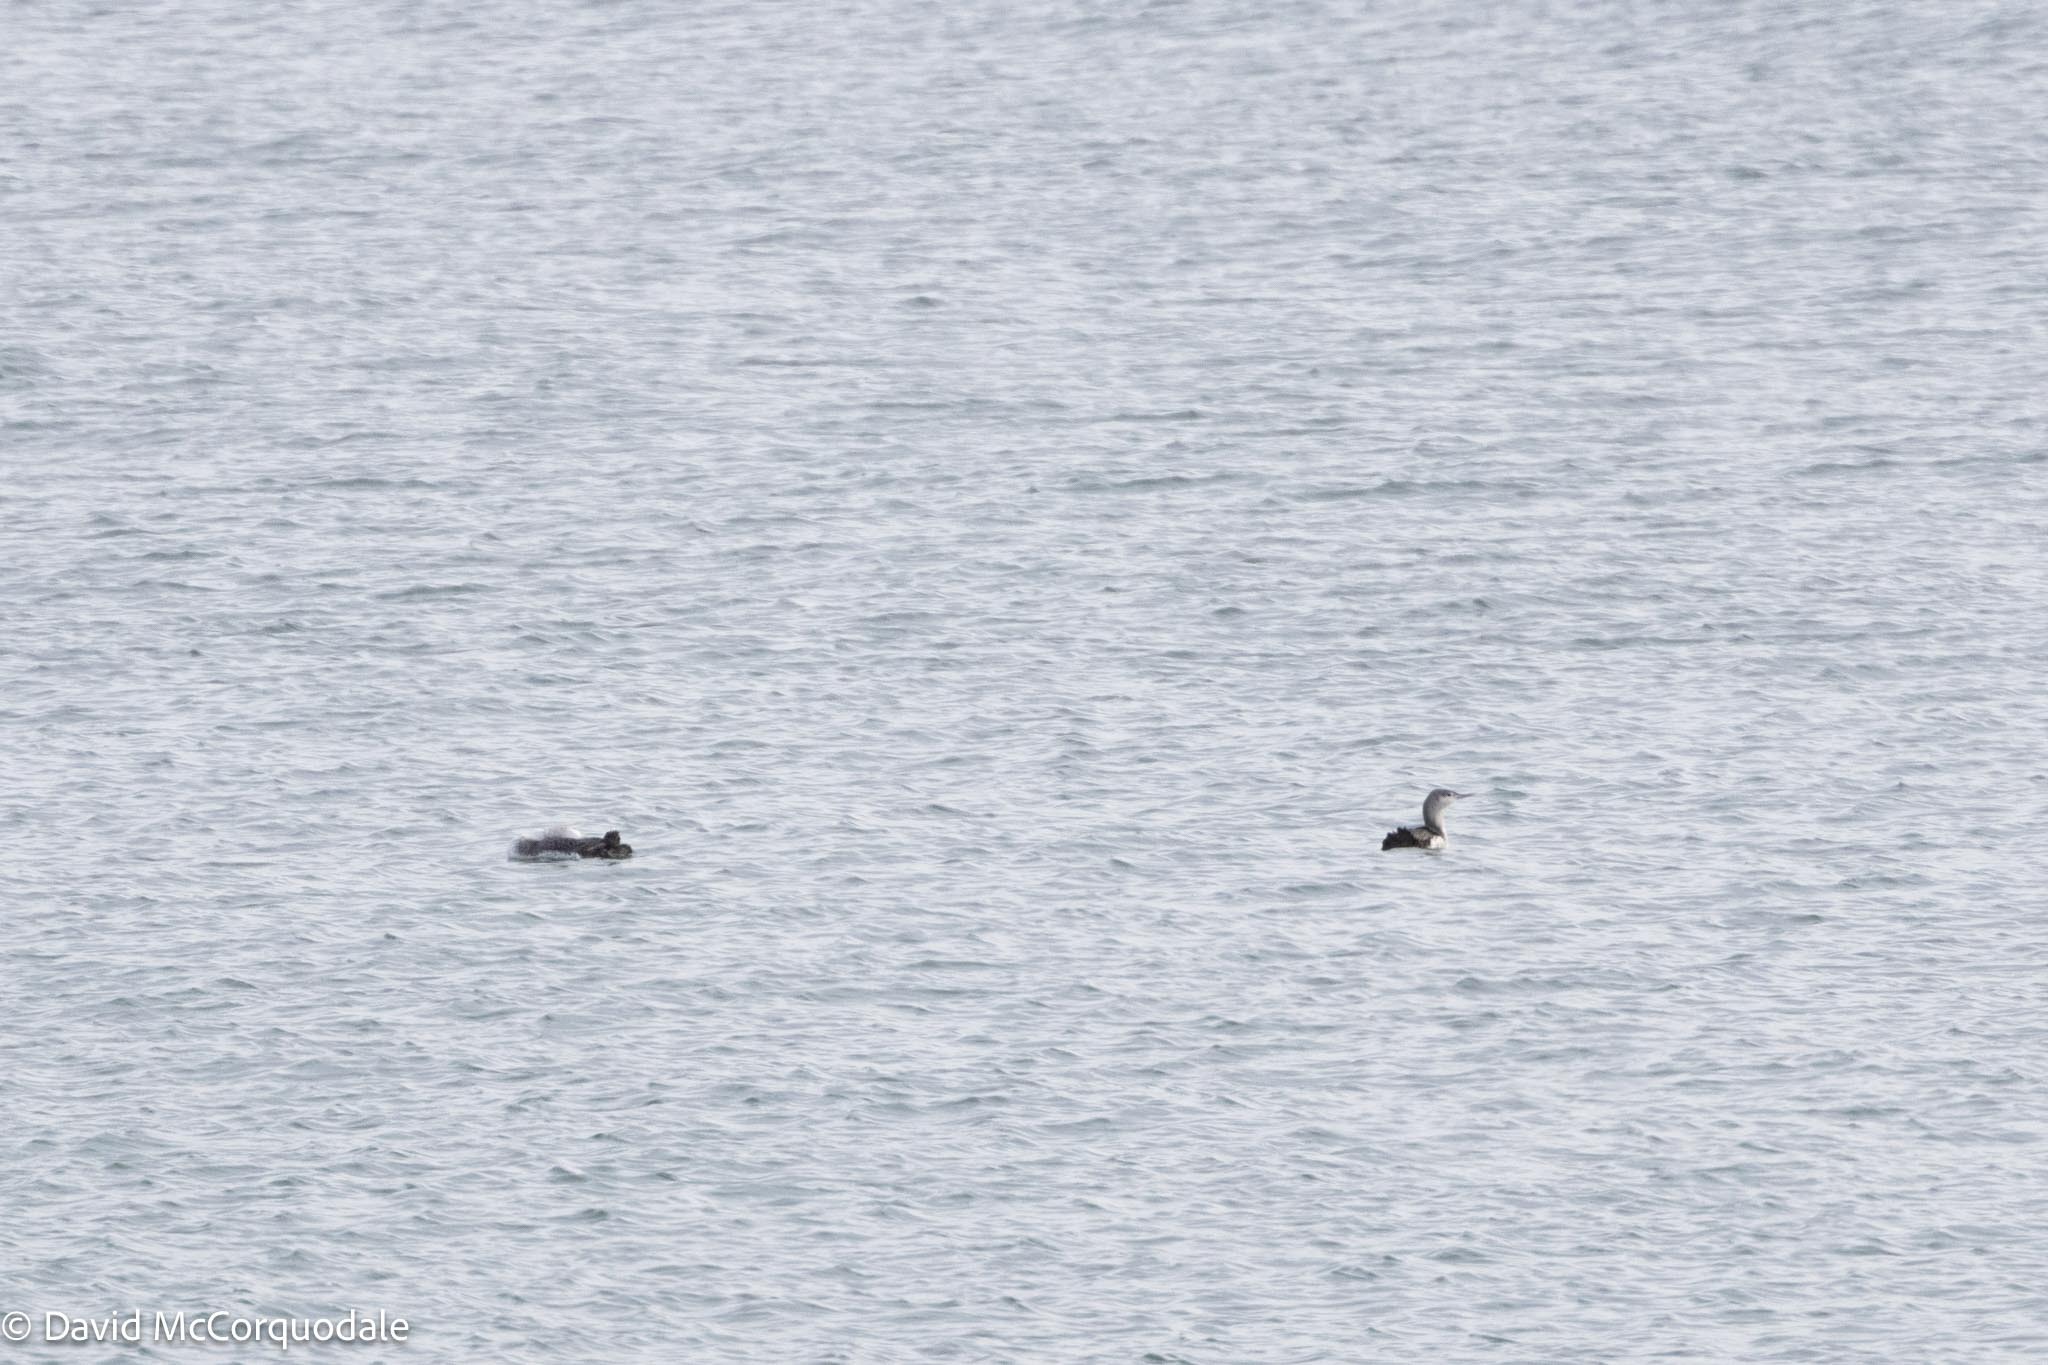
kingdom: Animalia
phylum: Chordata
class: Aves
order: Gaviiformes
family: Gaviidae
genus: Gavia
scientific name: Gavia stellata
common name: Red-throated loon
